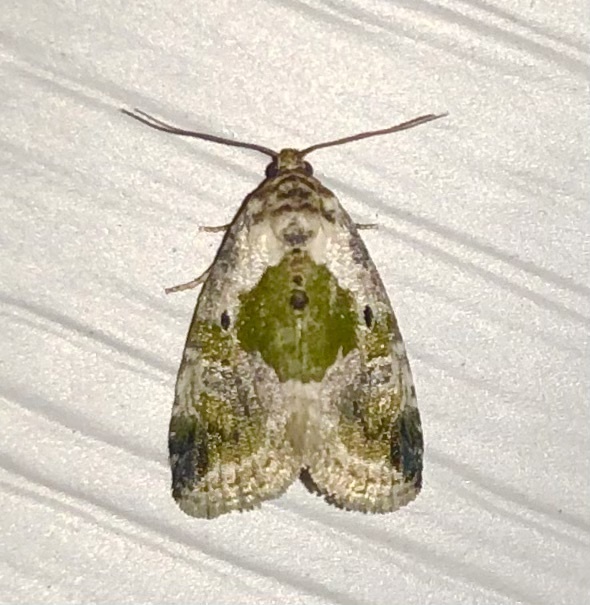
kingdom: Animalia
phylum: Arthropoda
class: Insecta
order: Lepidoptera
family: Noctuidae
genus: Maliattha
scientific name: Maliattha synochitis
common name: Black-dotted glyph
